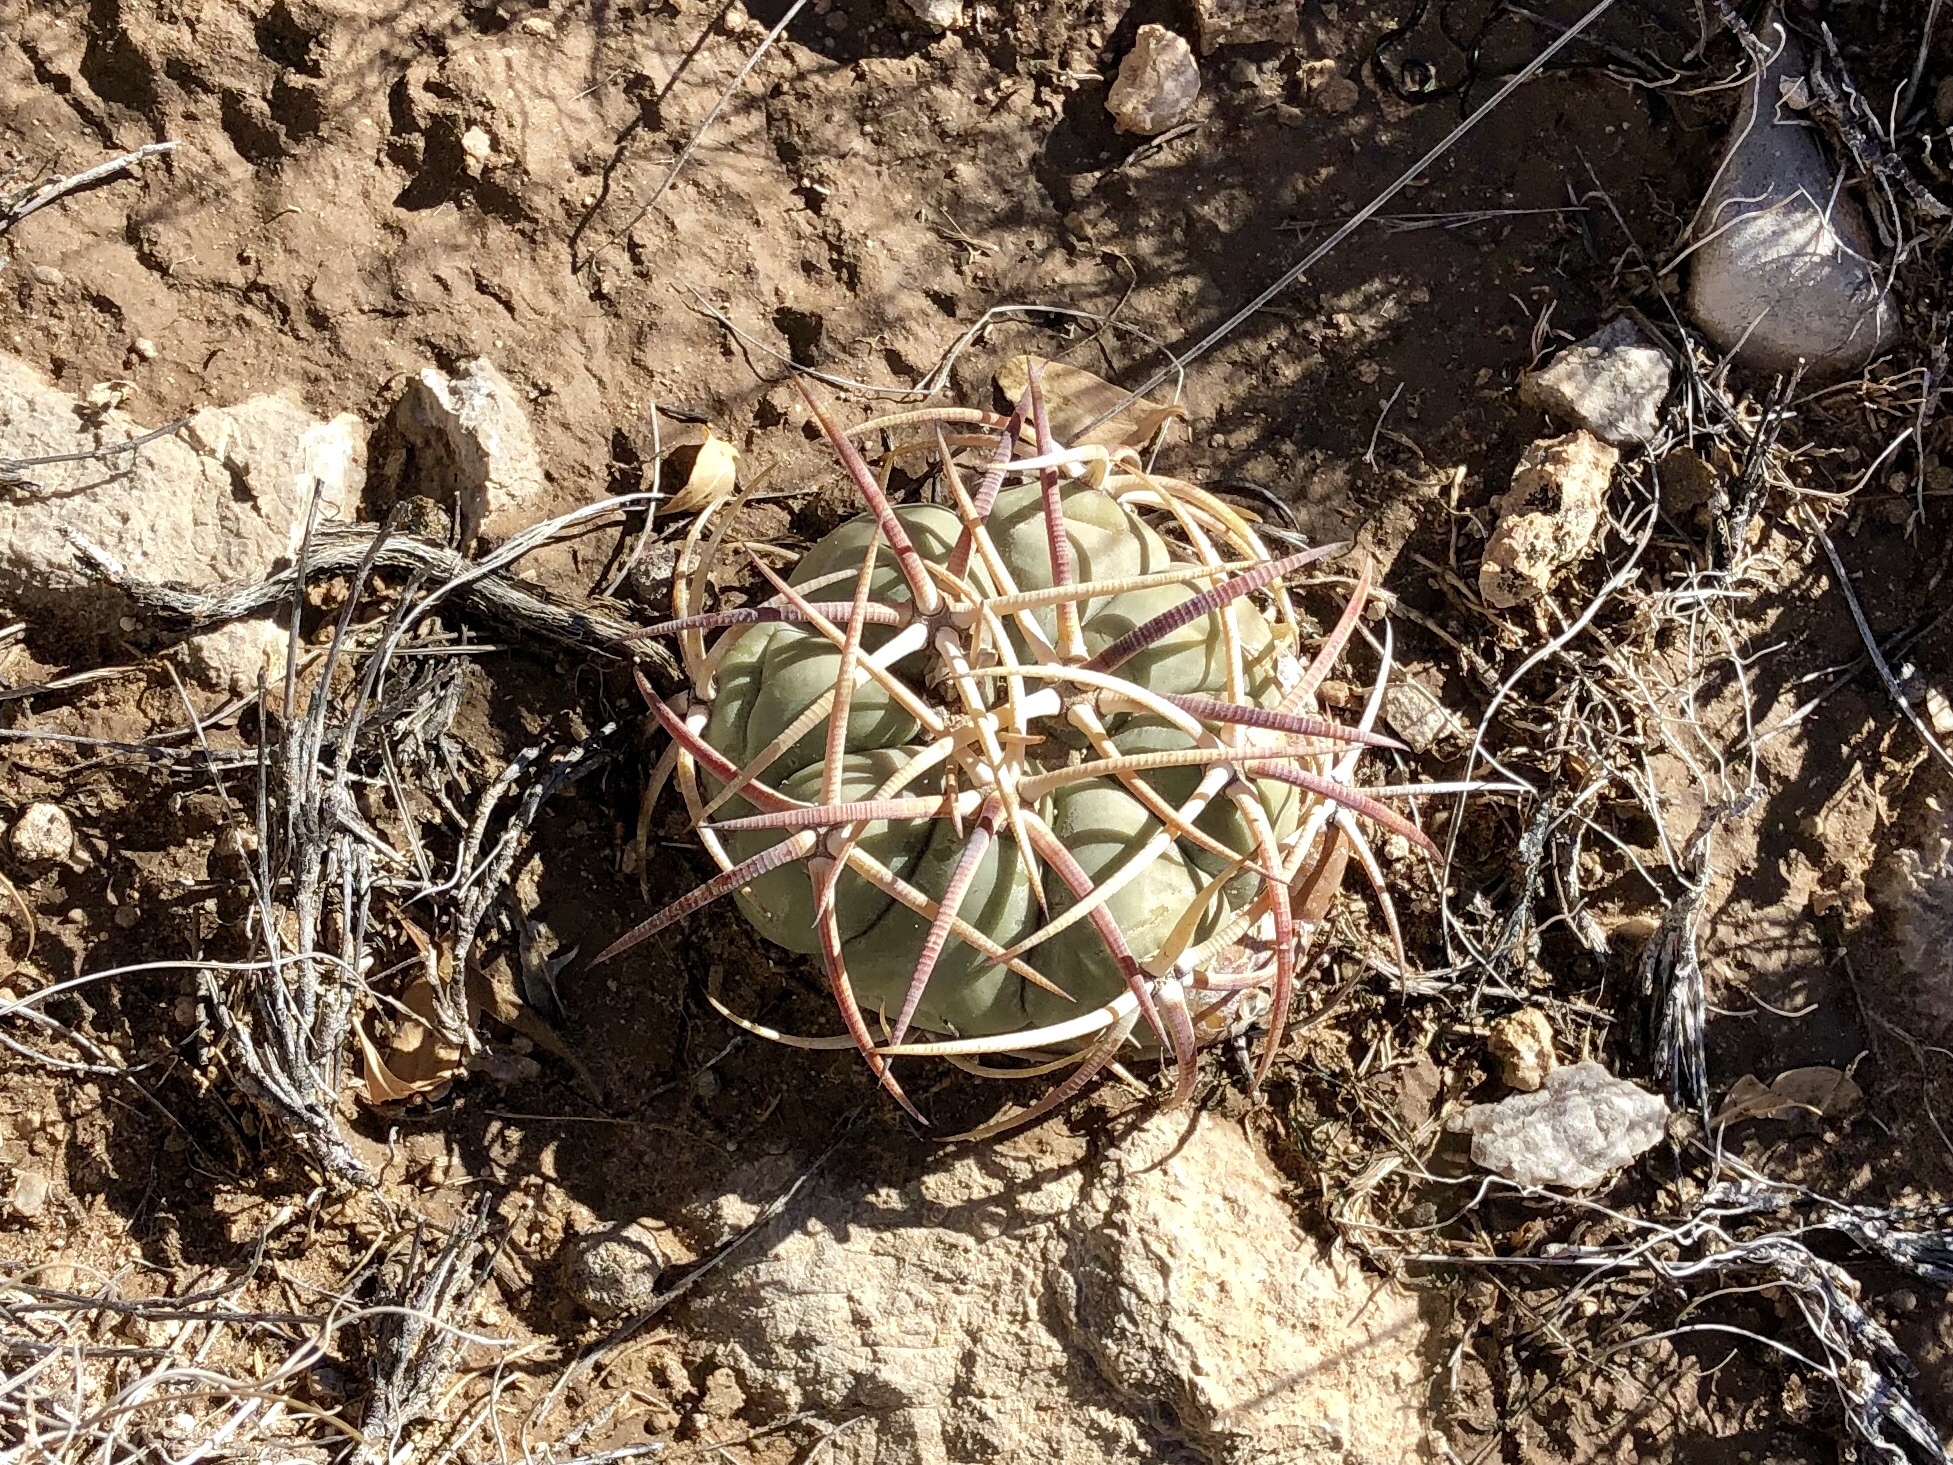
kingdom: Plantae
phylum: Tracheophyta
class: Magnoliopsida
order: Caryophyllales
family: Cactaceae
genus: Echinocactus
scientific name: Echinocactus horizonthalonius
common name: Devilshead
